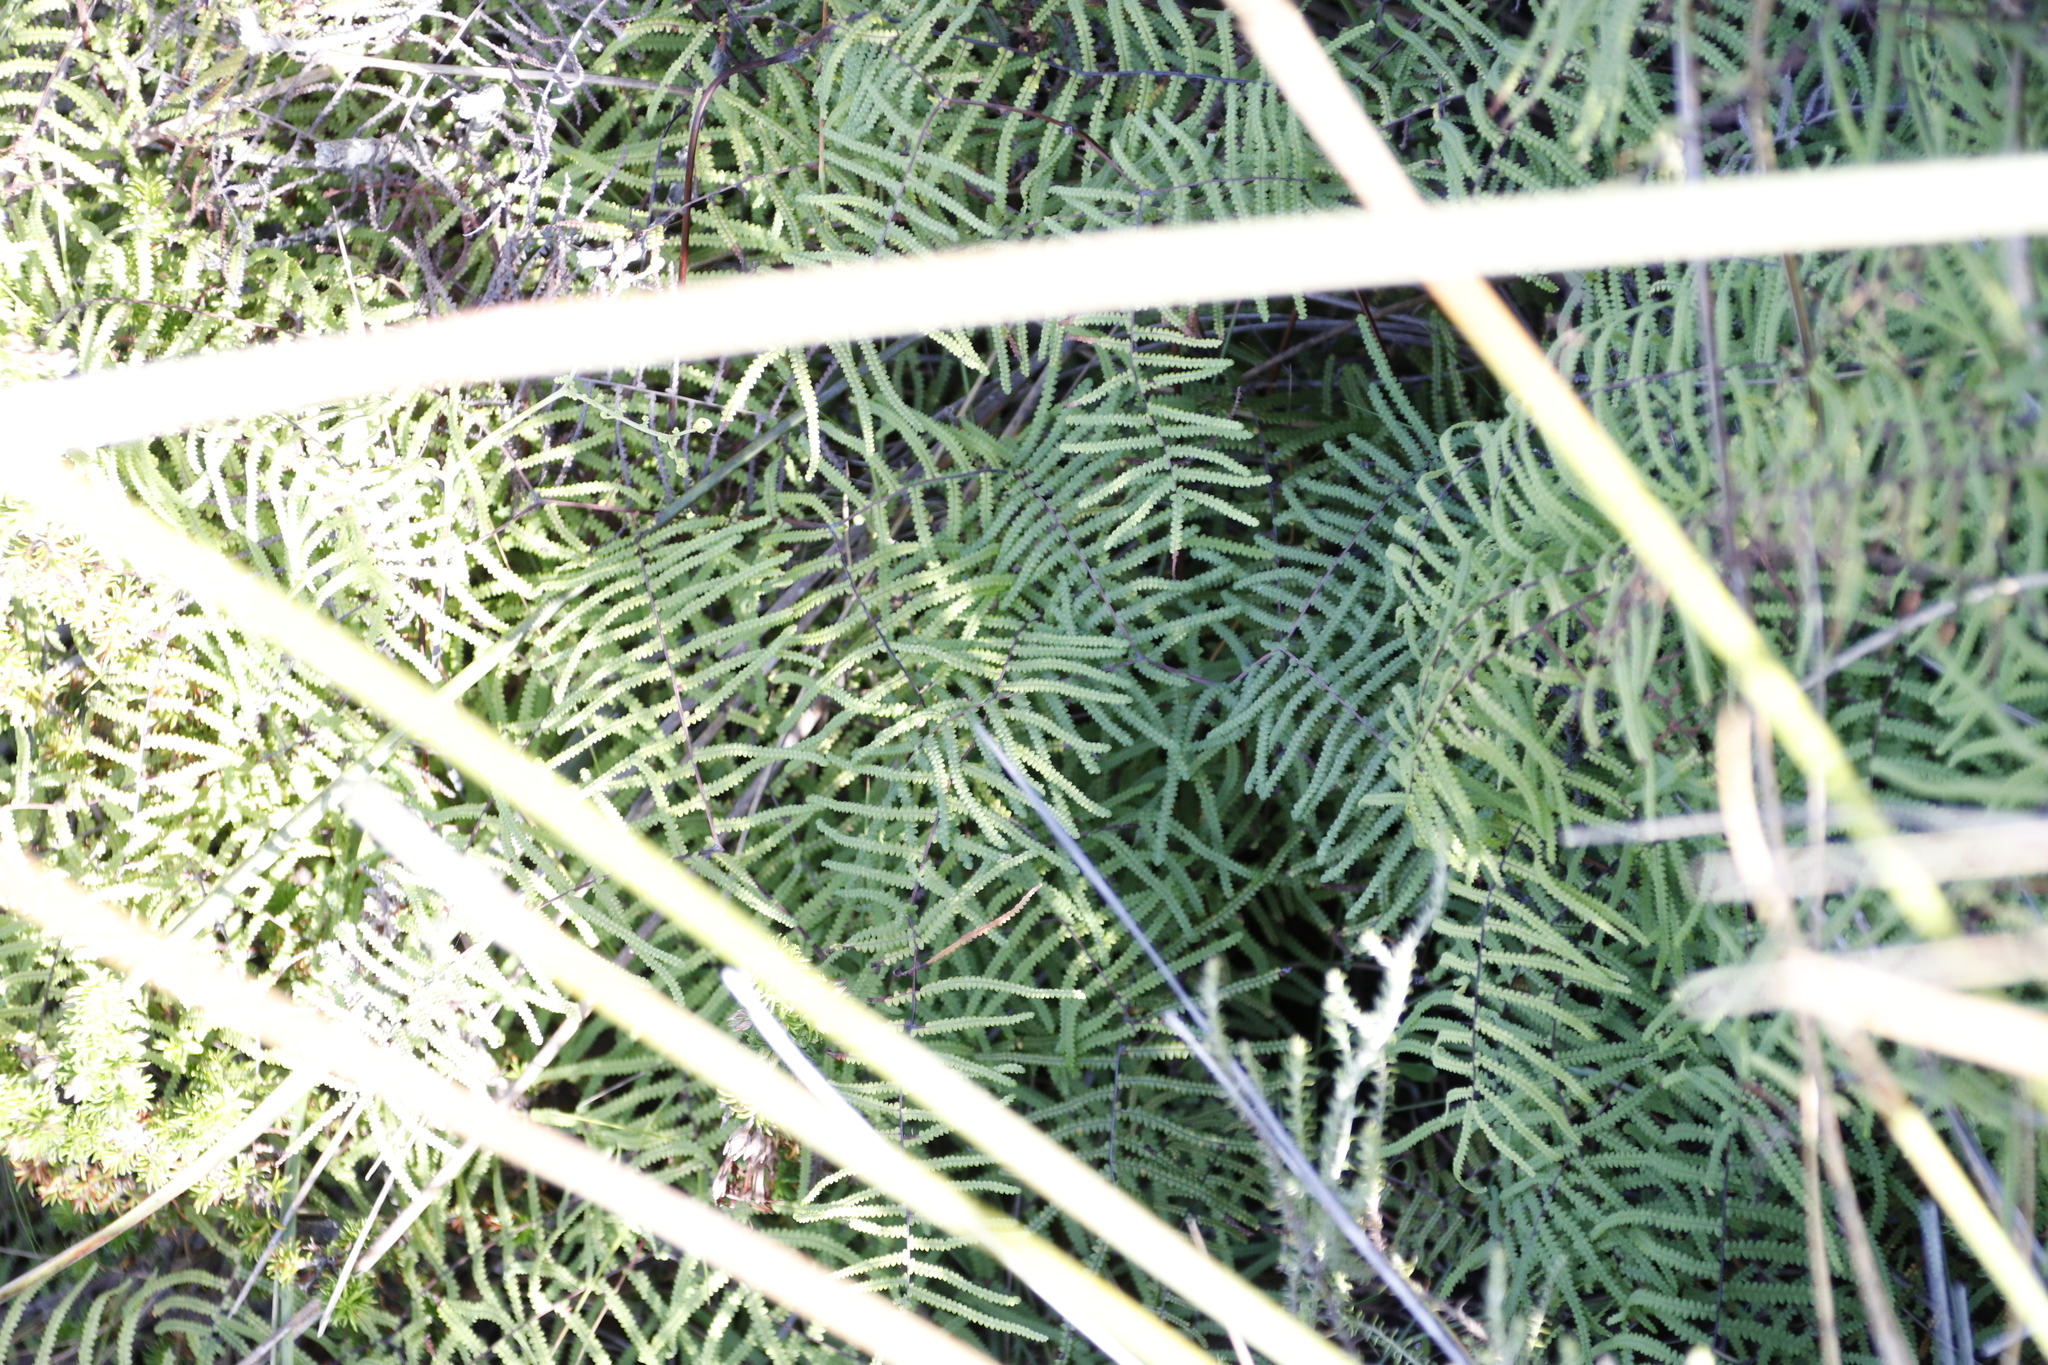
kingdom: Plantae
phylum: Tracheophyta
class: Polypodiopsida
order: Gleicheniales
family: Gleicheniaceae
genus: Gleichenia
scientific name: Gleichenia polypodioides
